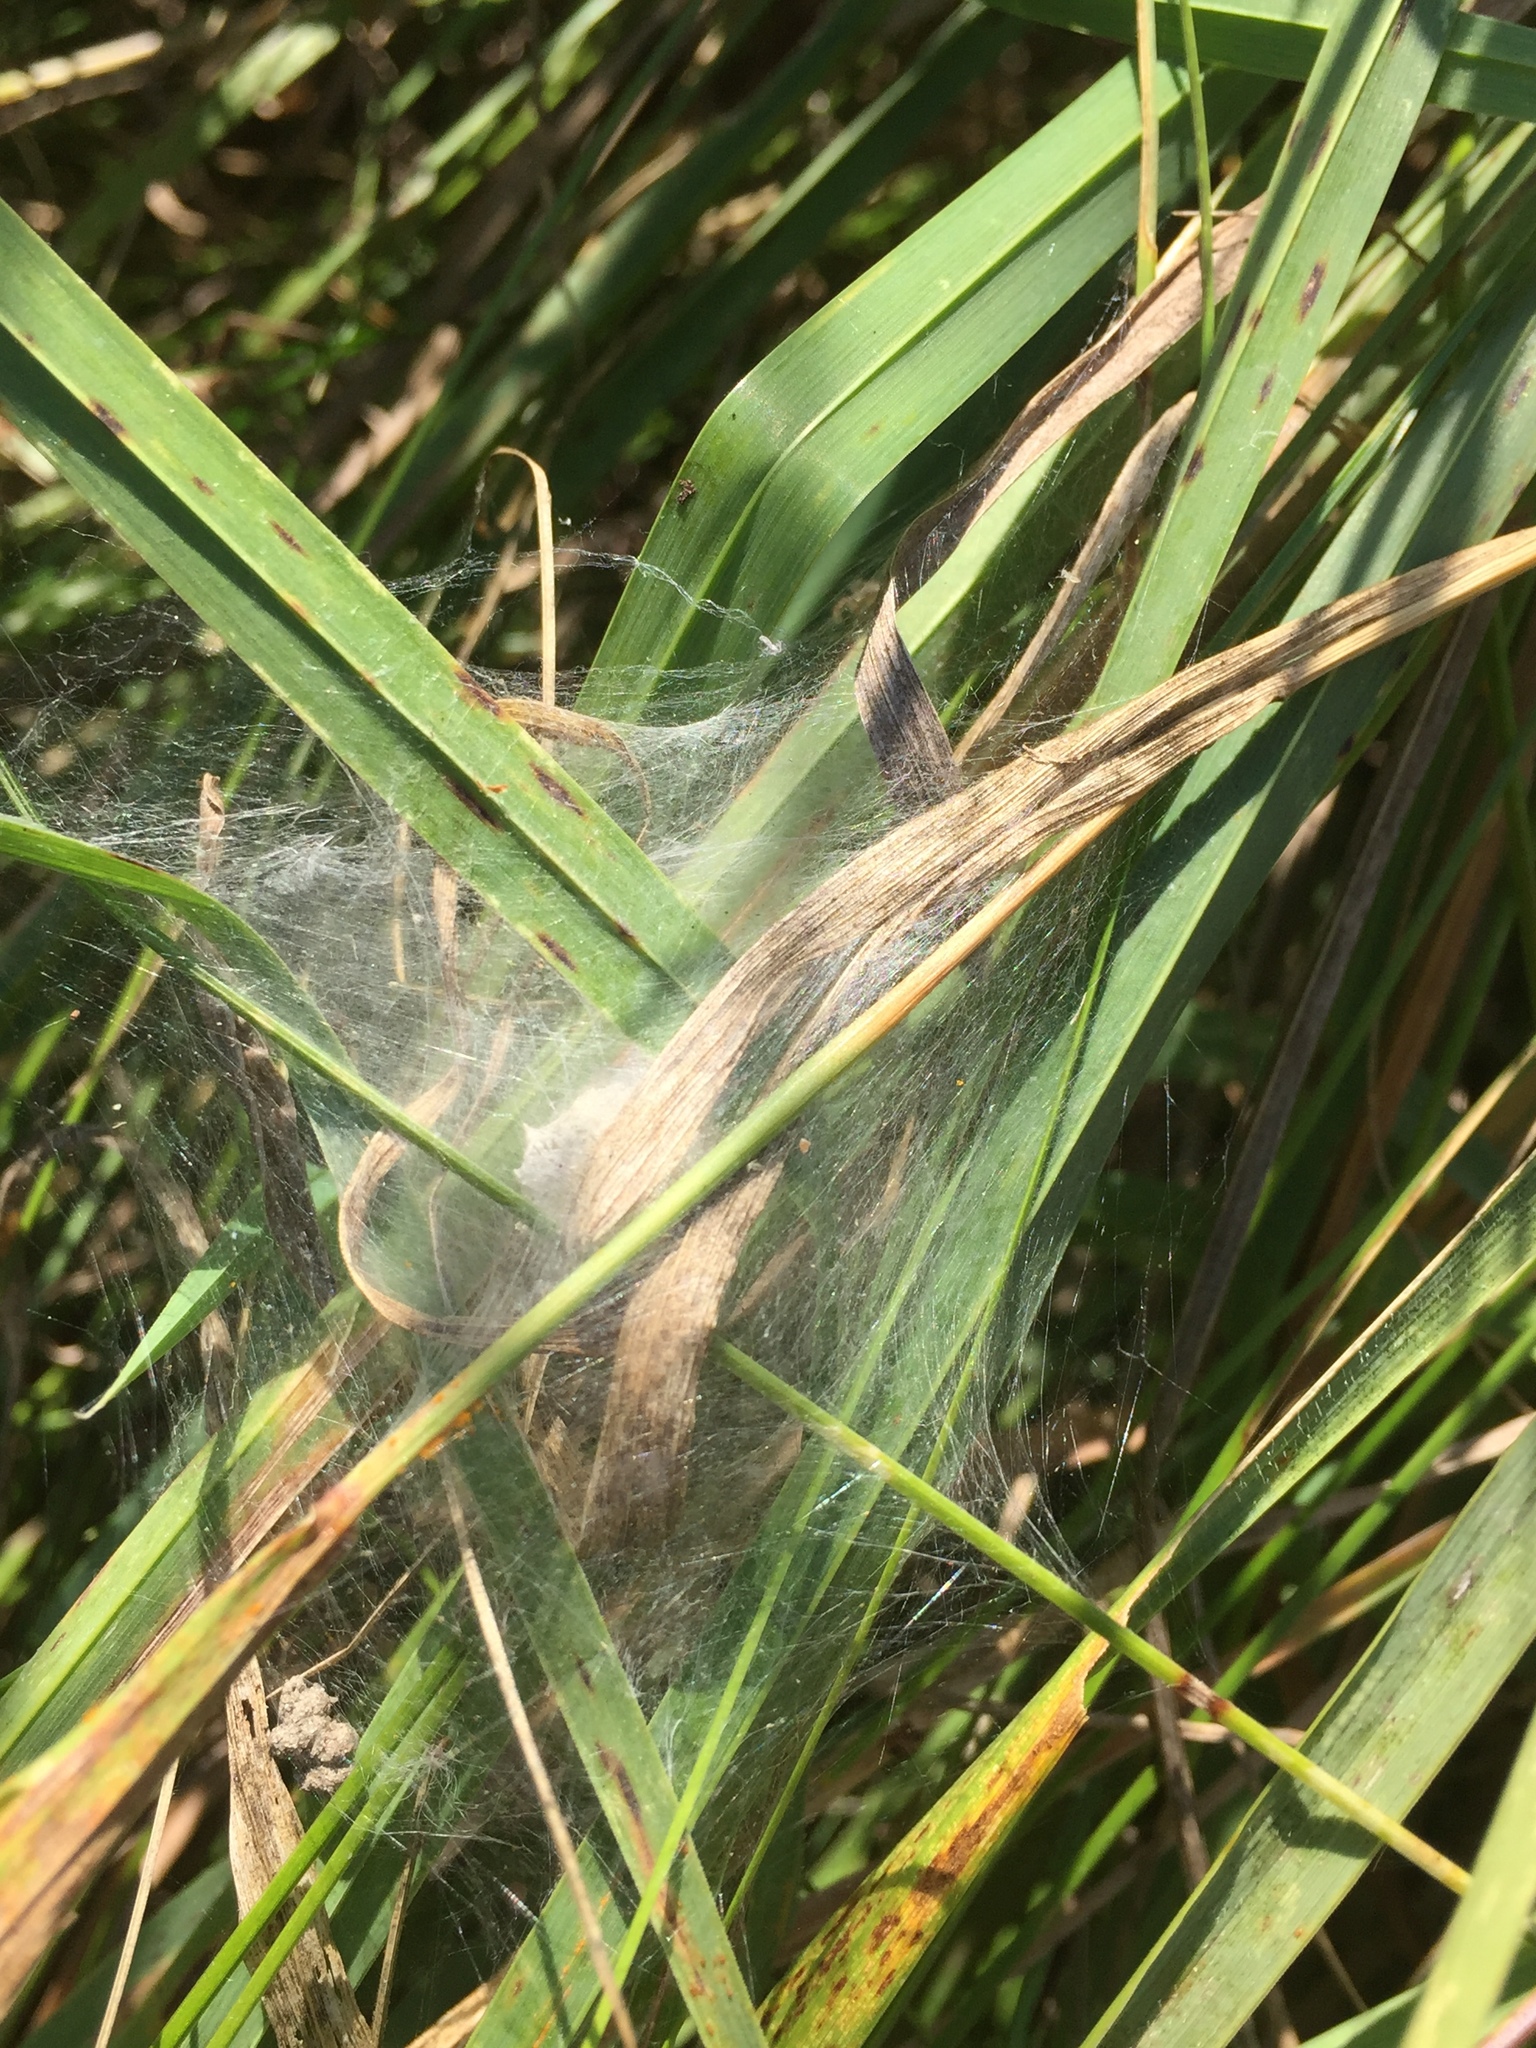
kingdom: Animalia
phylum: Arthropoda
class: Arachnida
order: Araneae
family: Pisauridae
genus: Pisaura
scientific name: Pisaura mirabilis
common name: Tent spider
